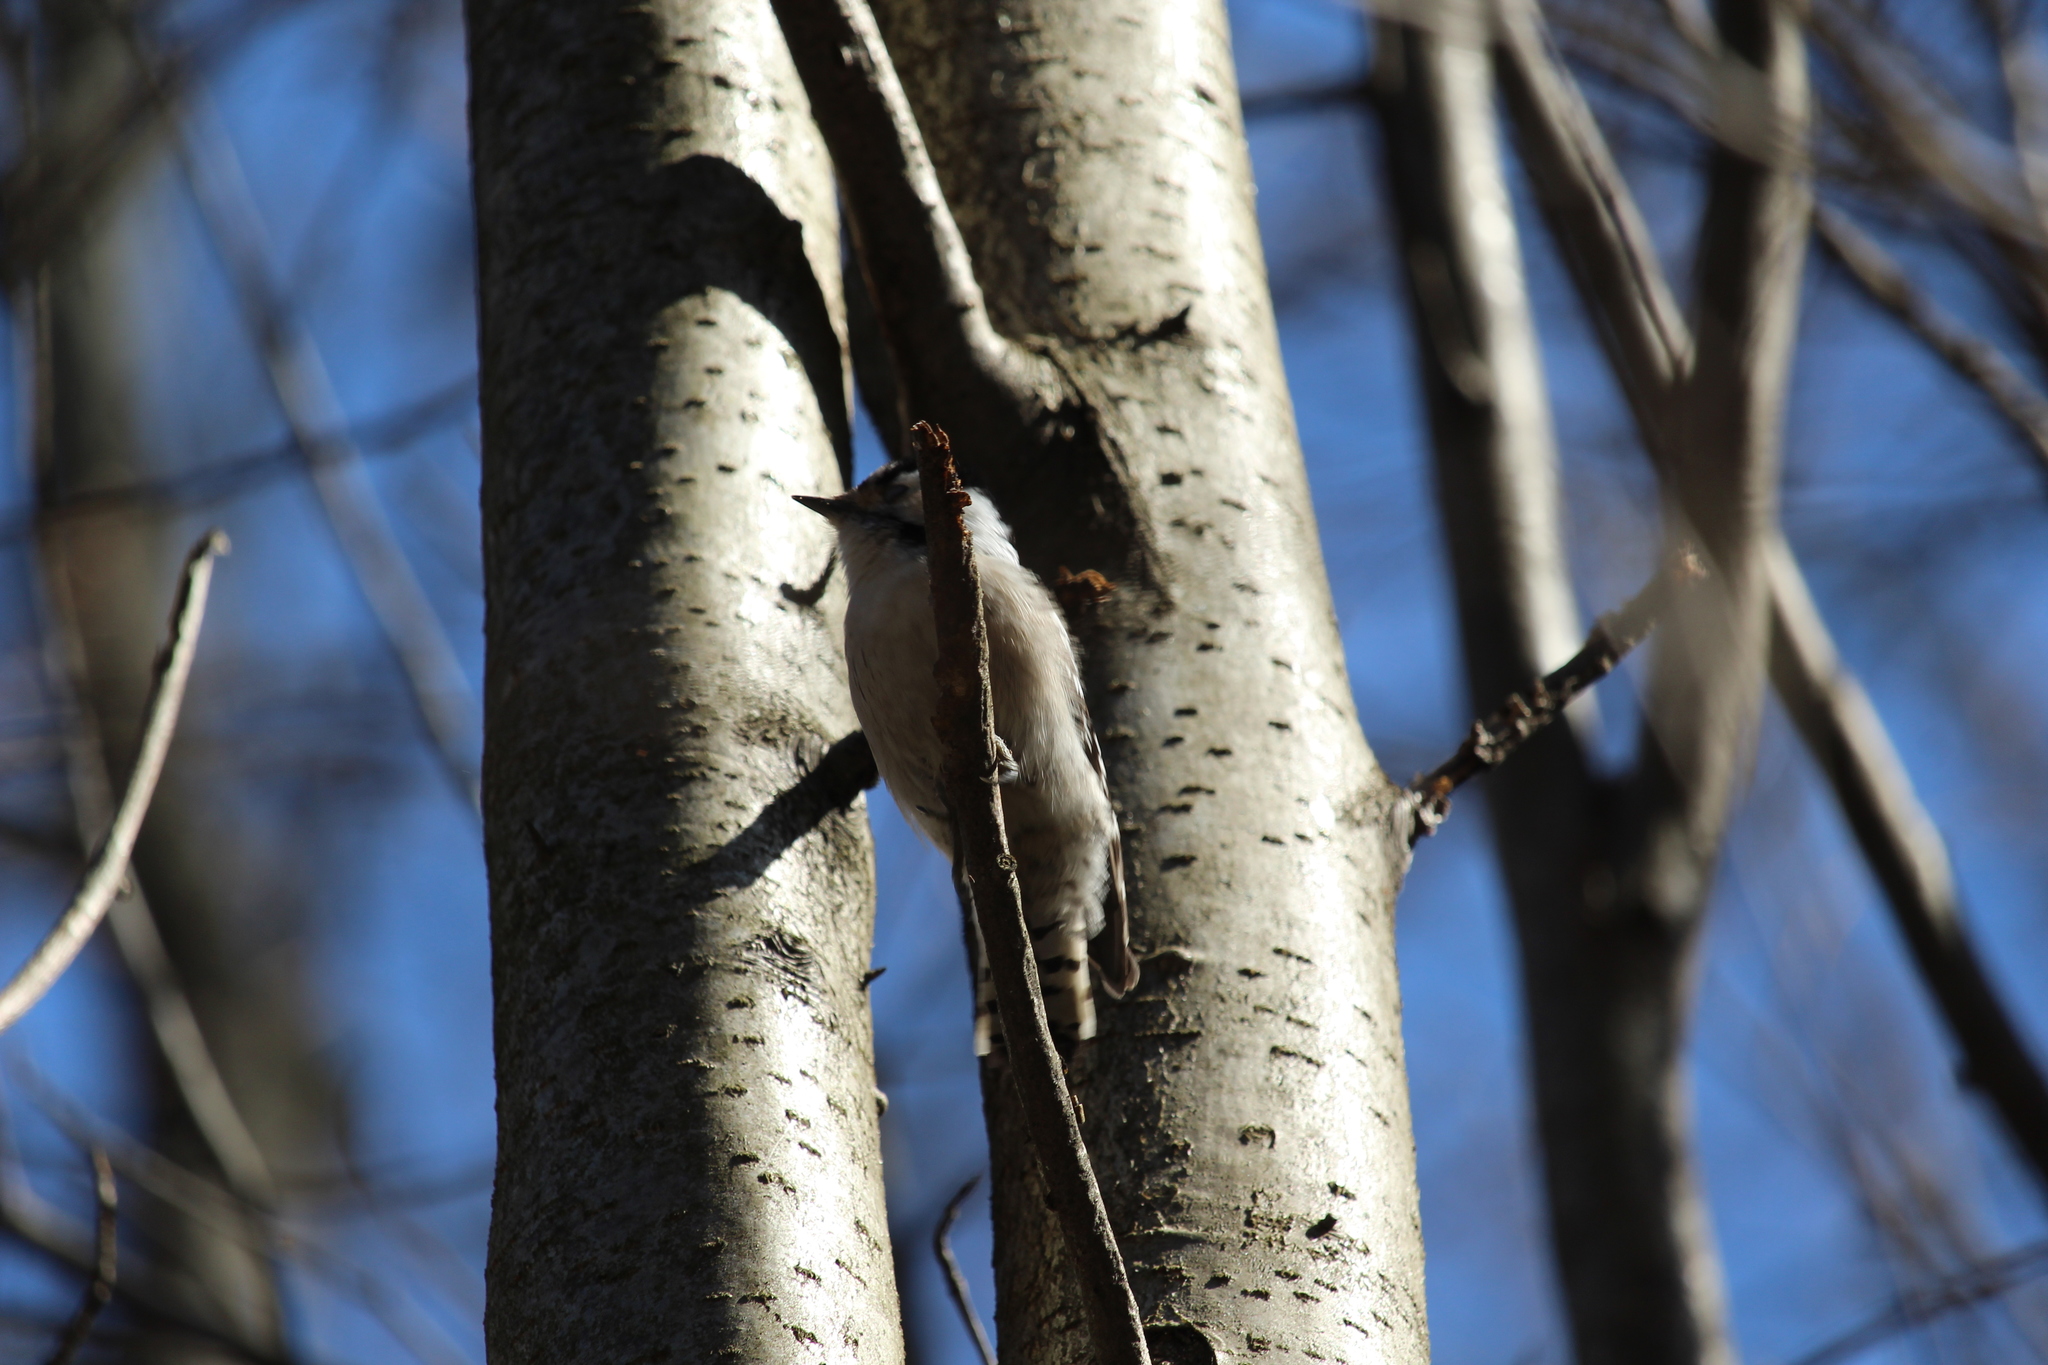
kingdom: Animalia
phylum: Chordata
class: Aves
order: Piciformes
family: Picidae
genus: Dryobates
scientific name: Dryobates minor
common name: Lesser spotted woodpecker
